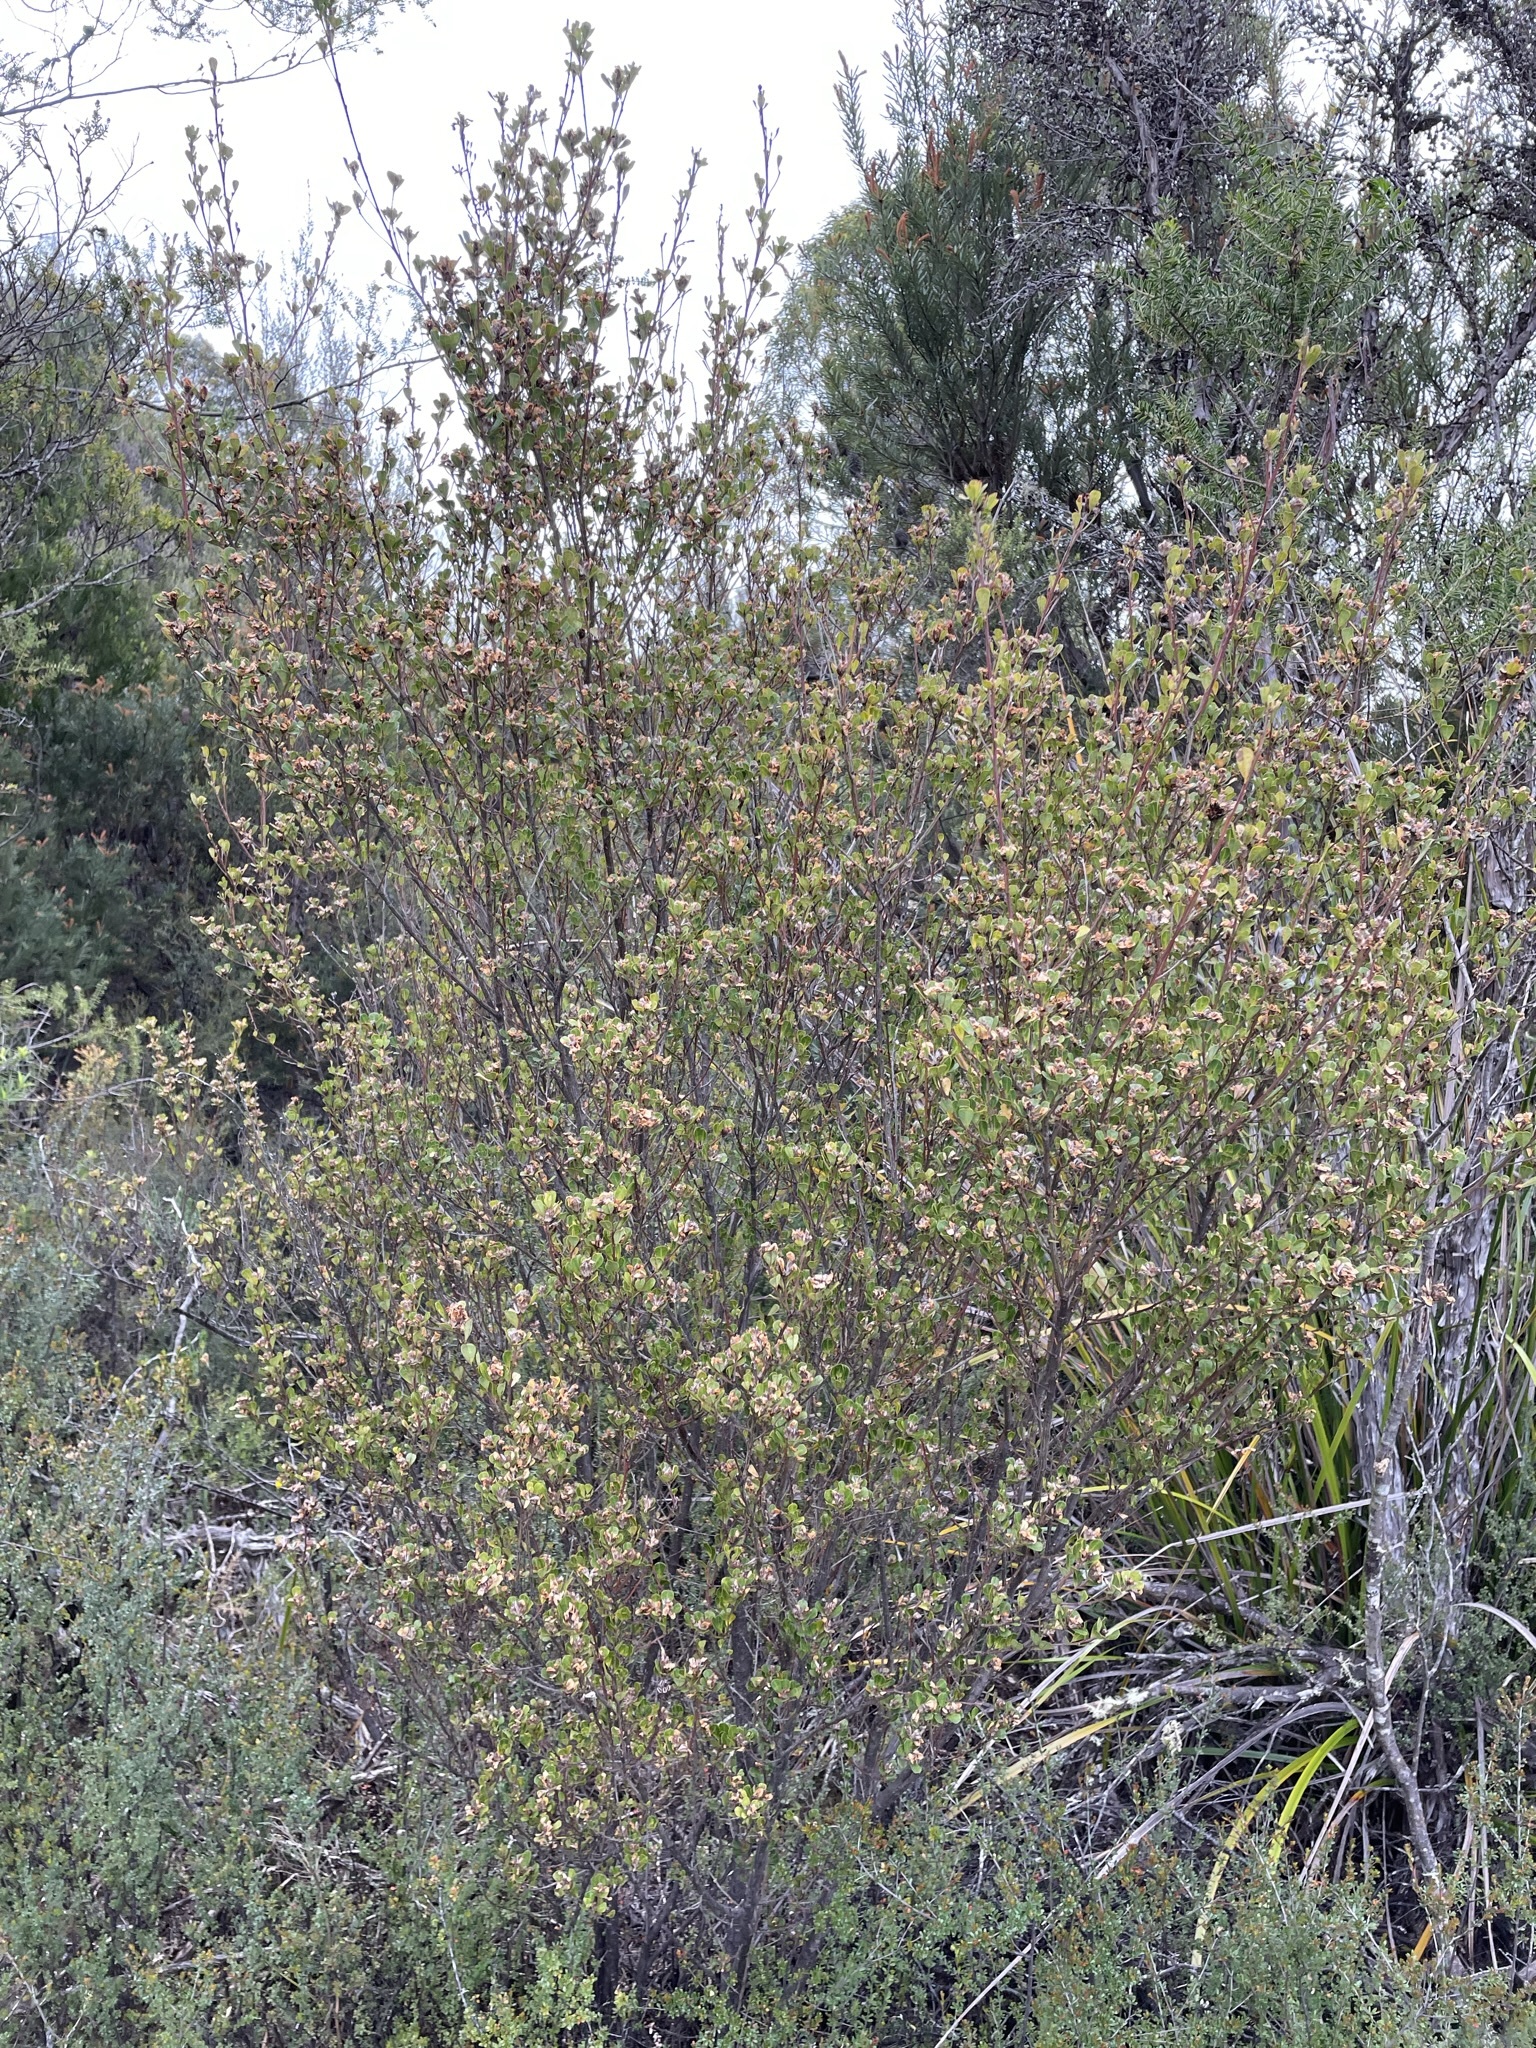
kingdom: Plantae
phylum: Tracheophyta
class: Magnoliopsida
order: Fabales
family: Fabaceae
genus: Pultenaea
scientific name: Pultenaea daphnoides
